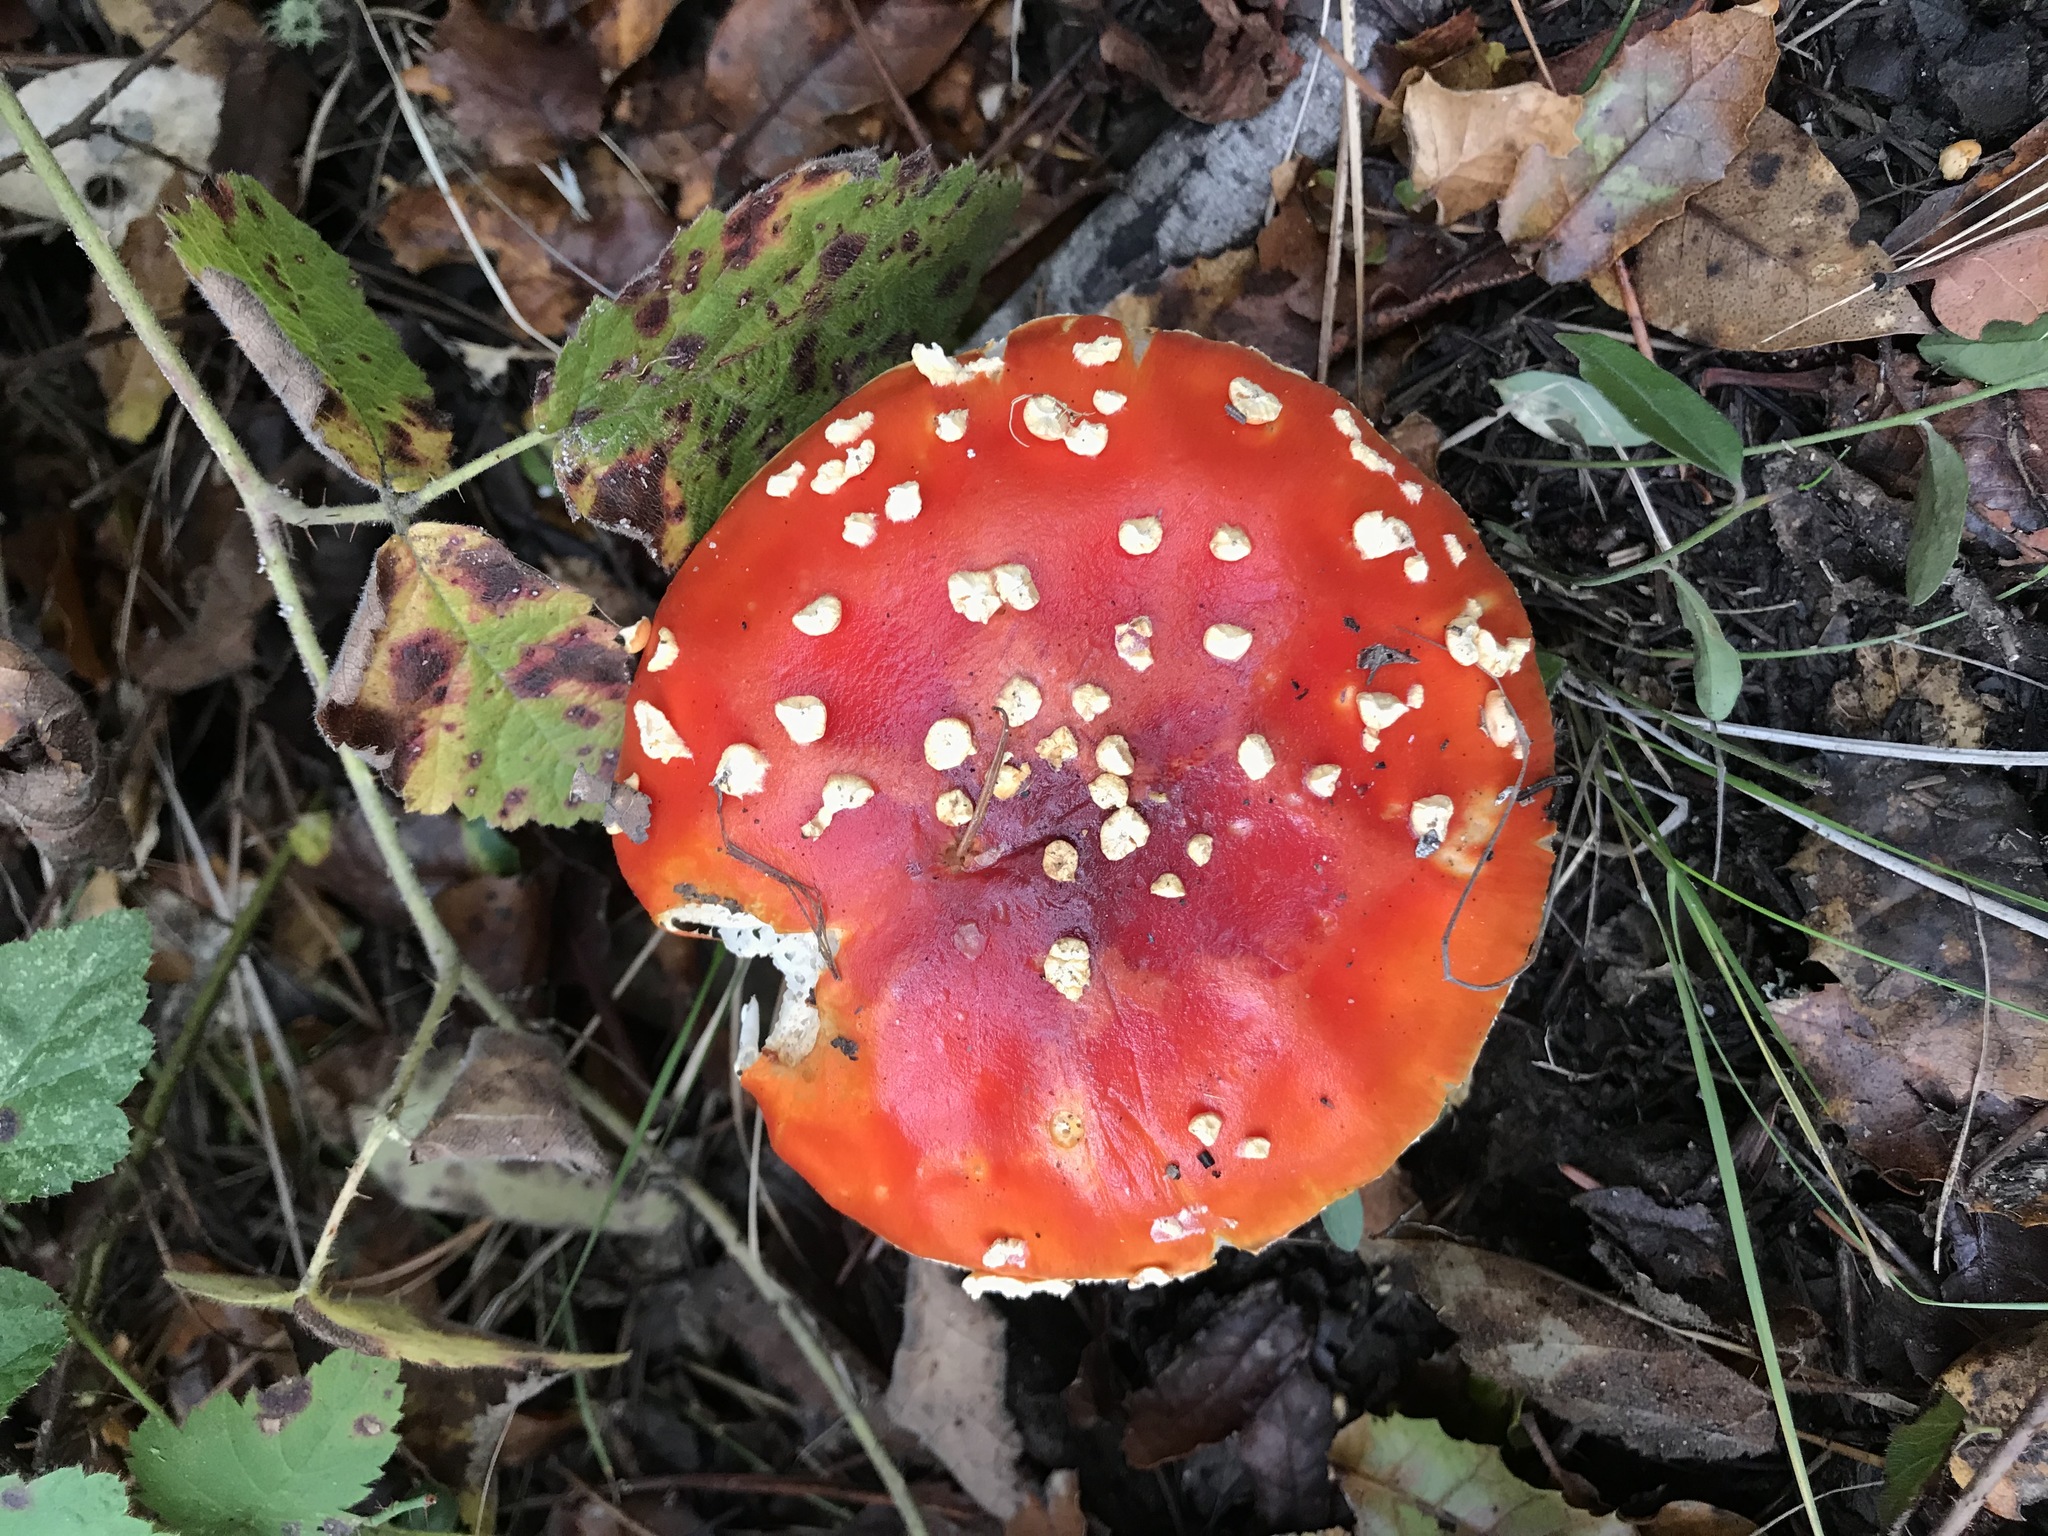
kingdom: Fungi
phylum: Basidiomycota
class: Agaricomycetes
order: Agaricales
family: Amanitaceae
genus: Amanita
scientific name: Amanita muscaria
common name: Fly agaric
